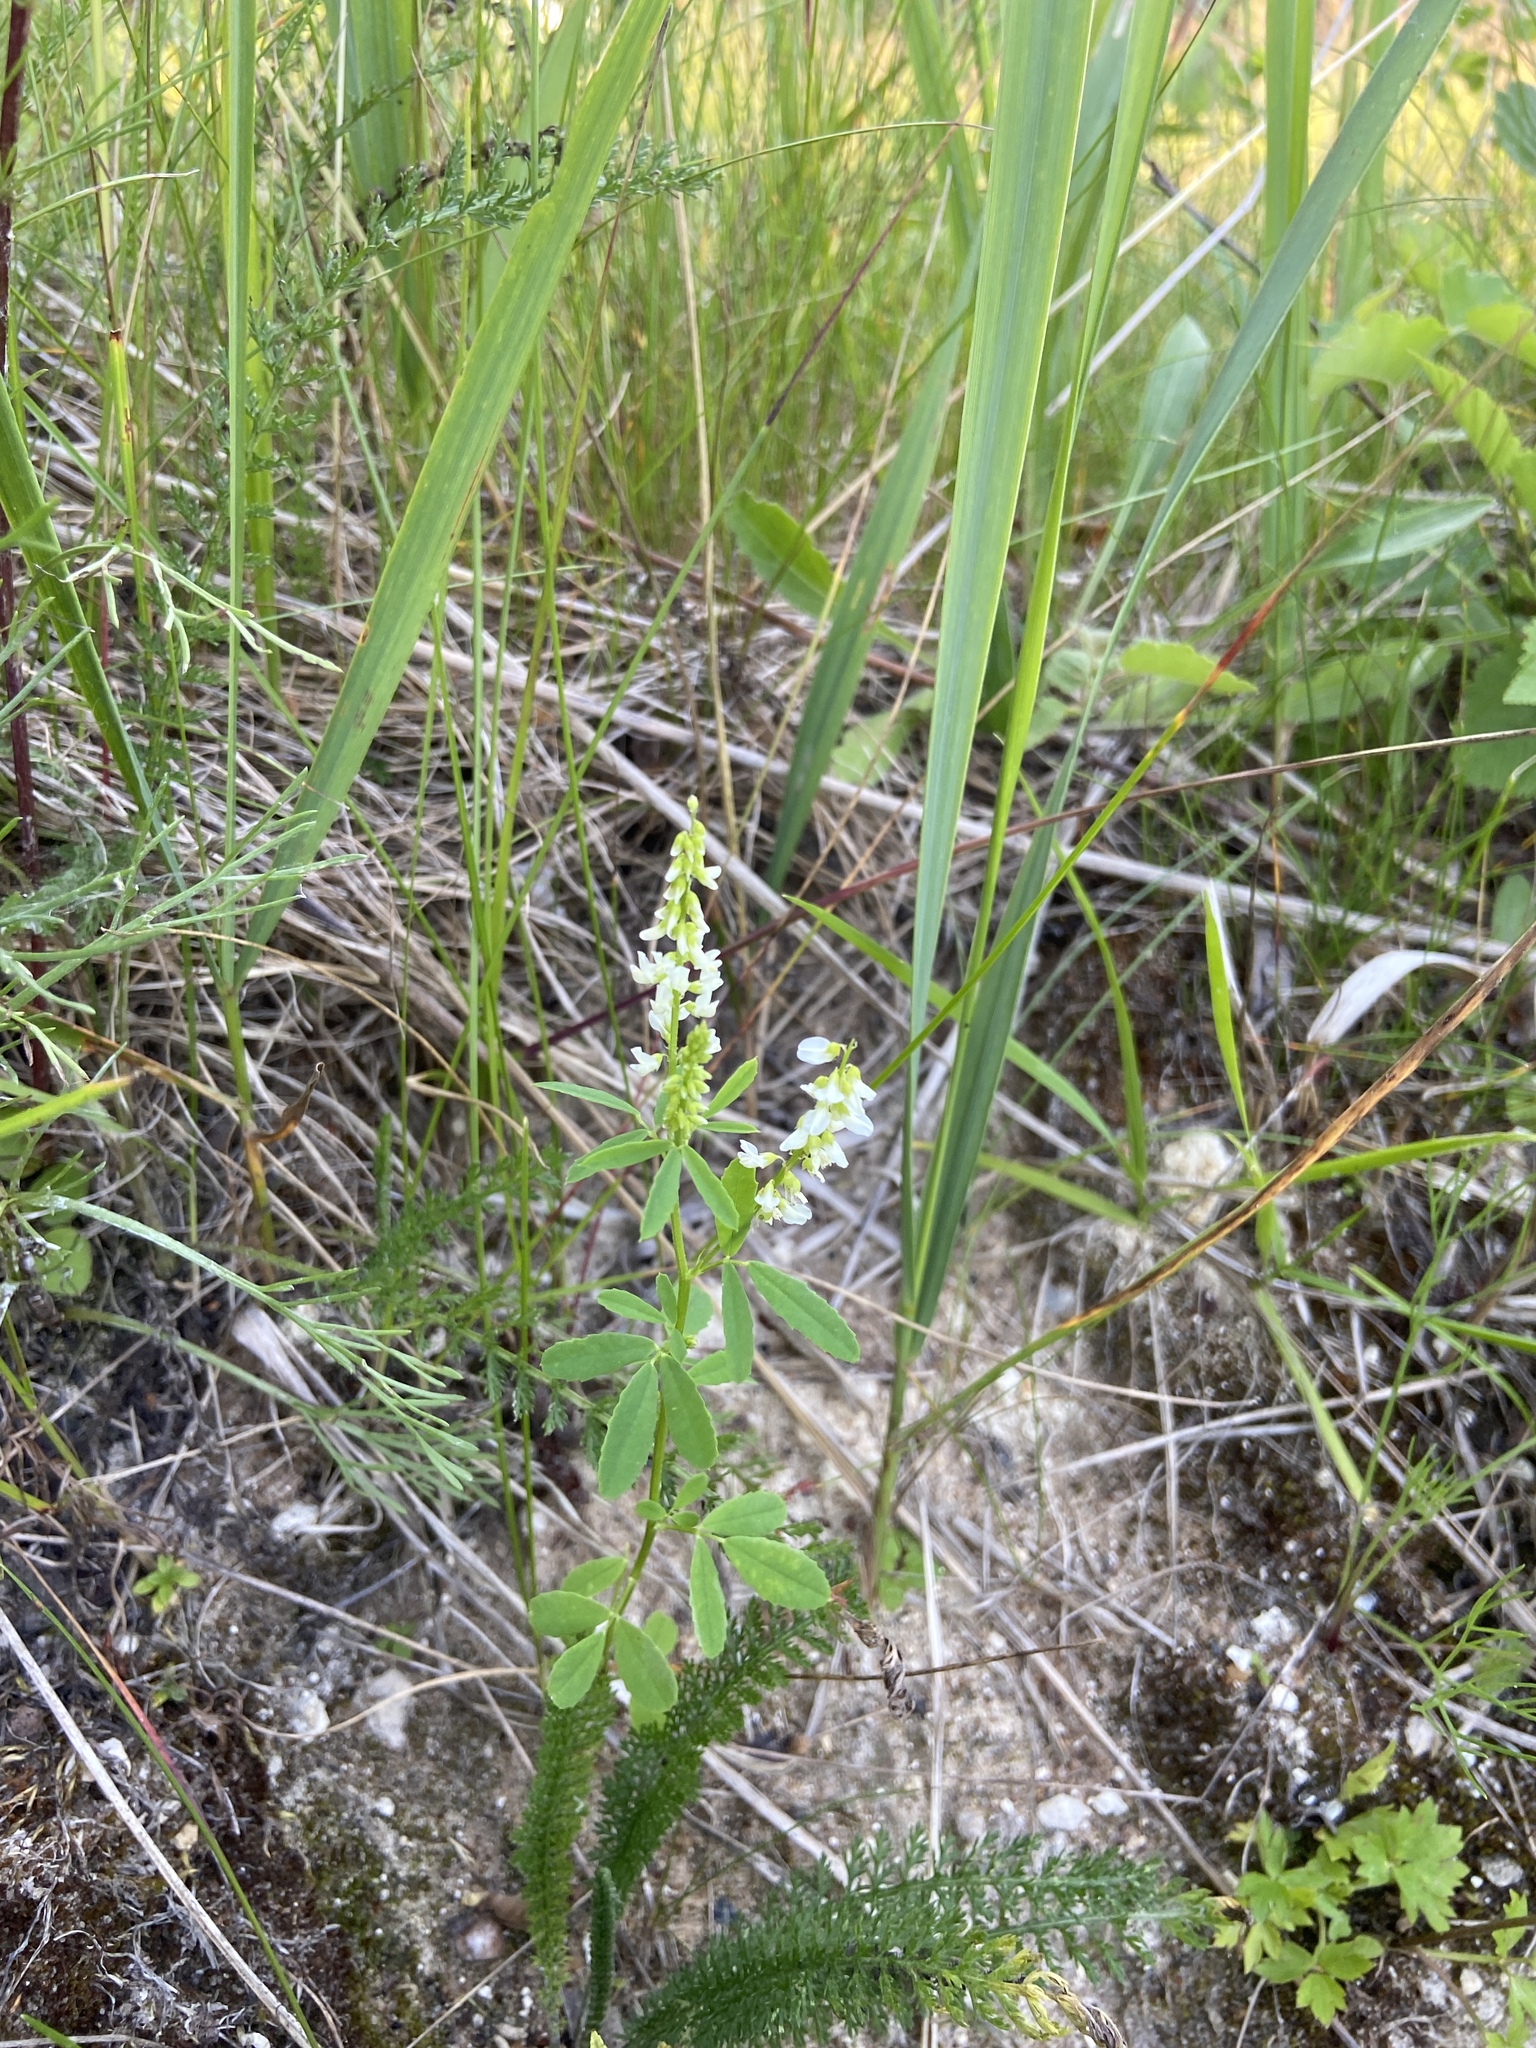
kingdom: Plantae
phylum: Tracheophyta
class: Magnoliopsida
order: Fabales
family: Fabaceae
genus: Melilotus
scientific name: Melilotus albus
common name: White melilot
